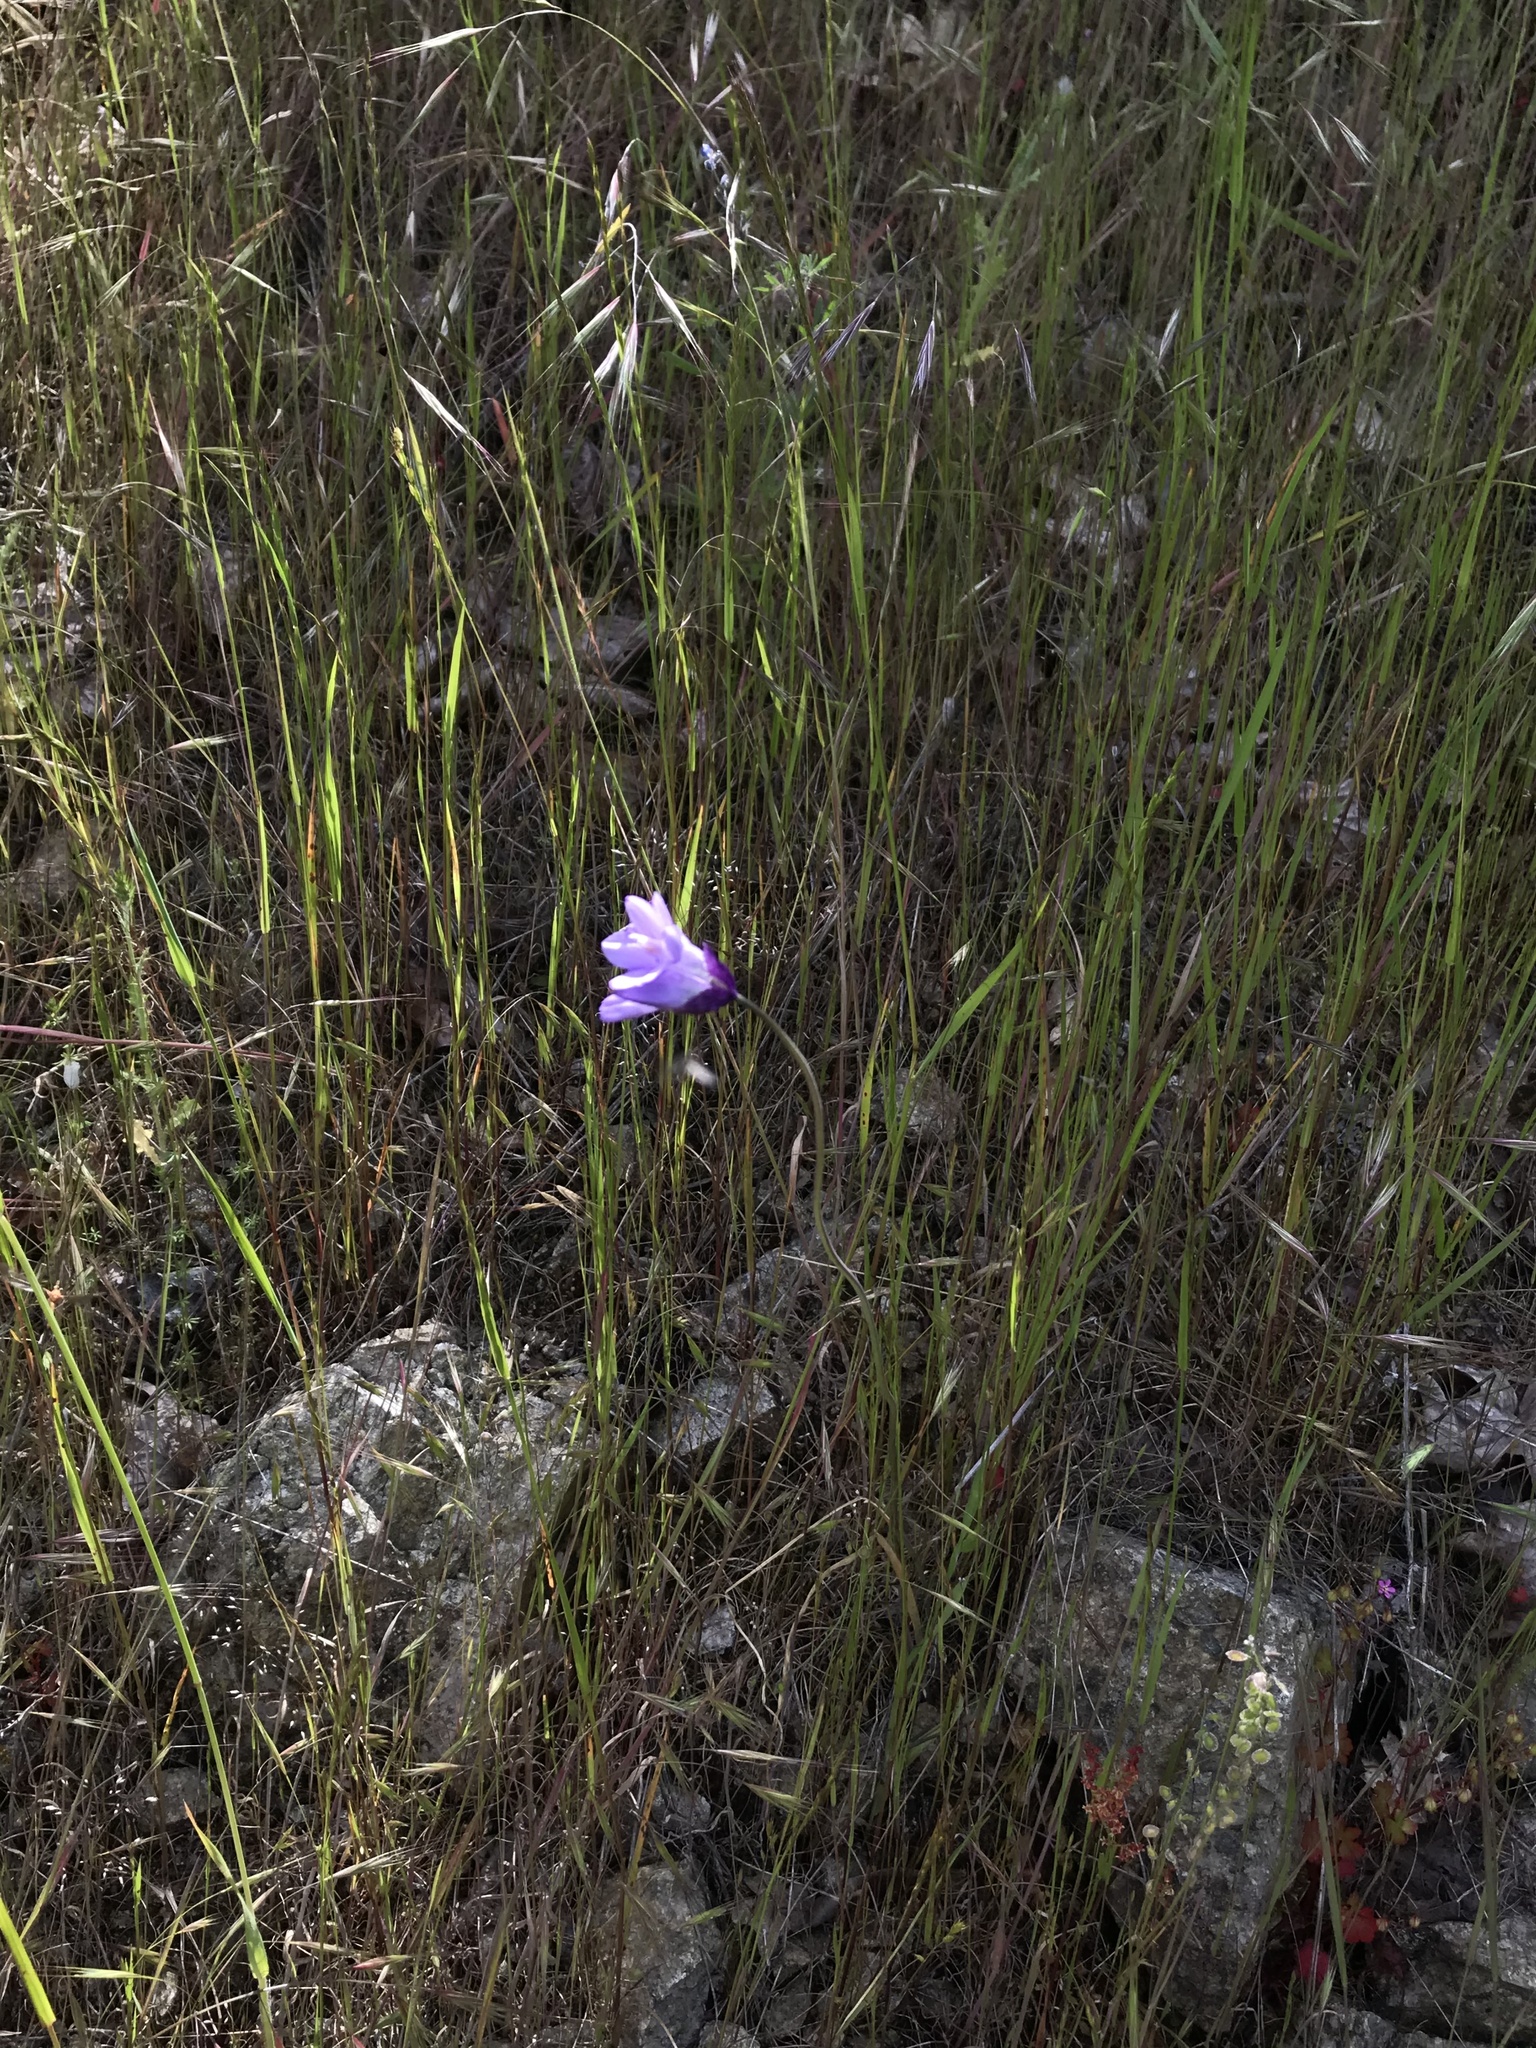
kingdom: Plantae
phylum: Tracheophyta
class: Liliopsida
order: Asparagales
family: Asparagaceae
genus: Dipterostemon
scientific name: Dipterostemon capitatus
